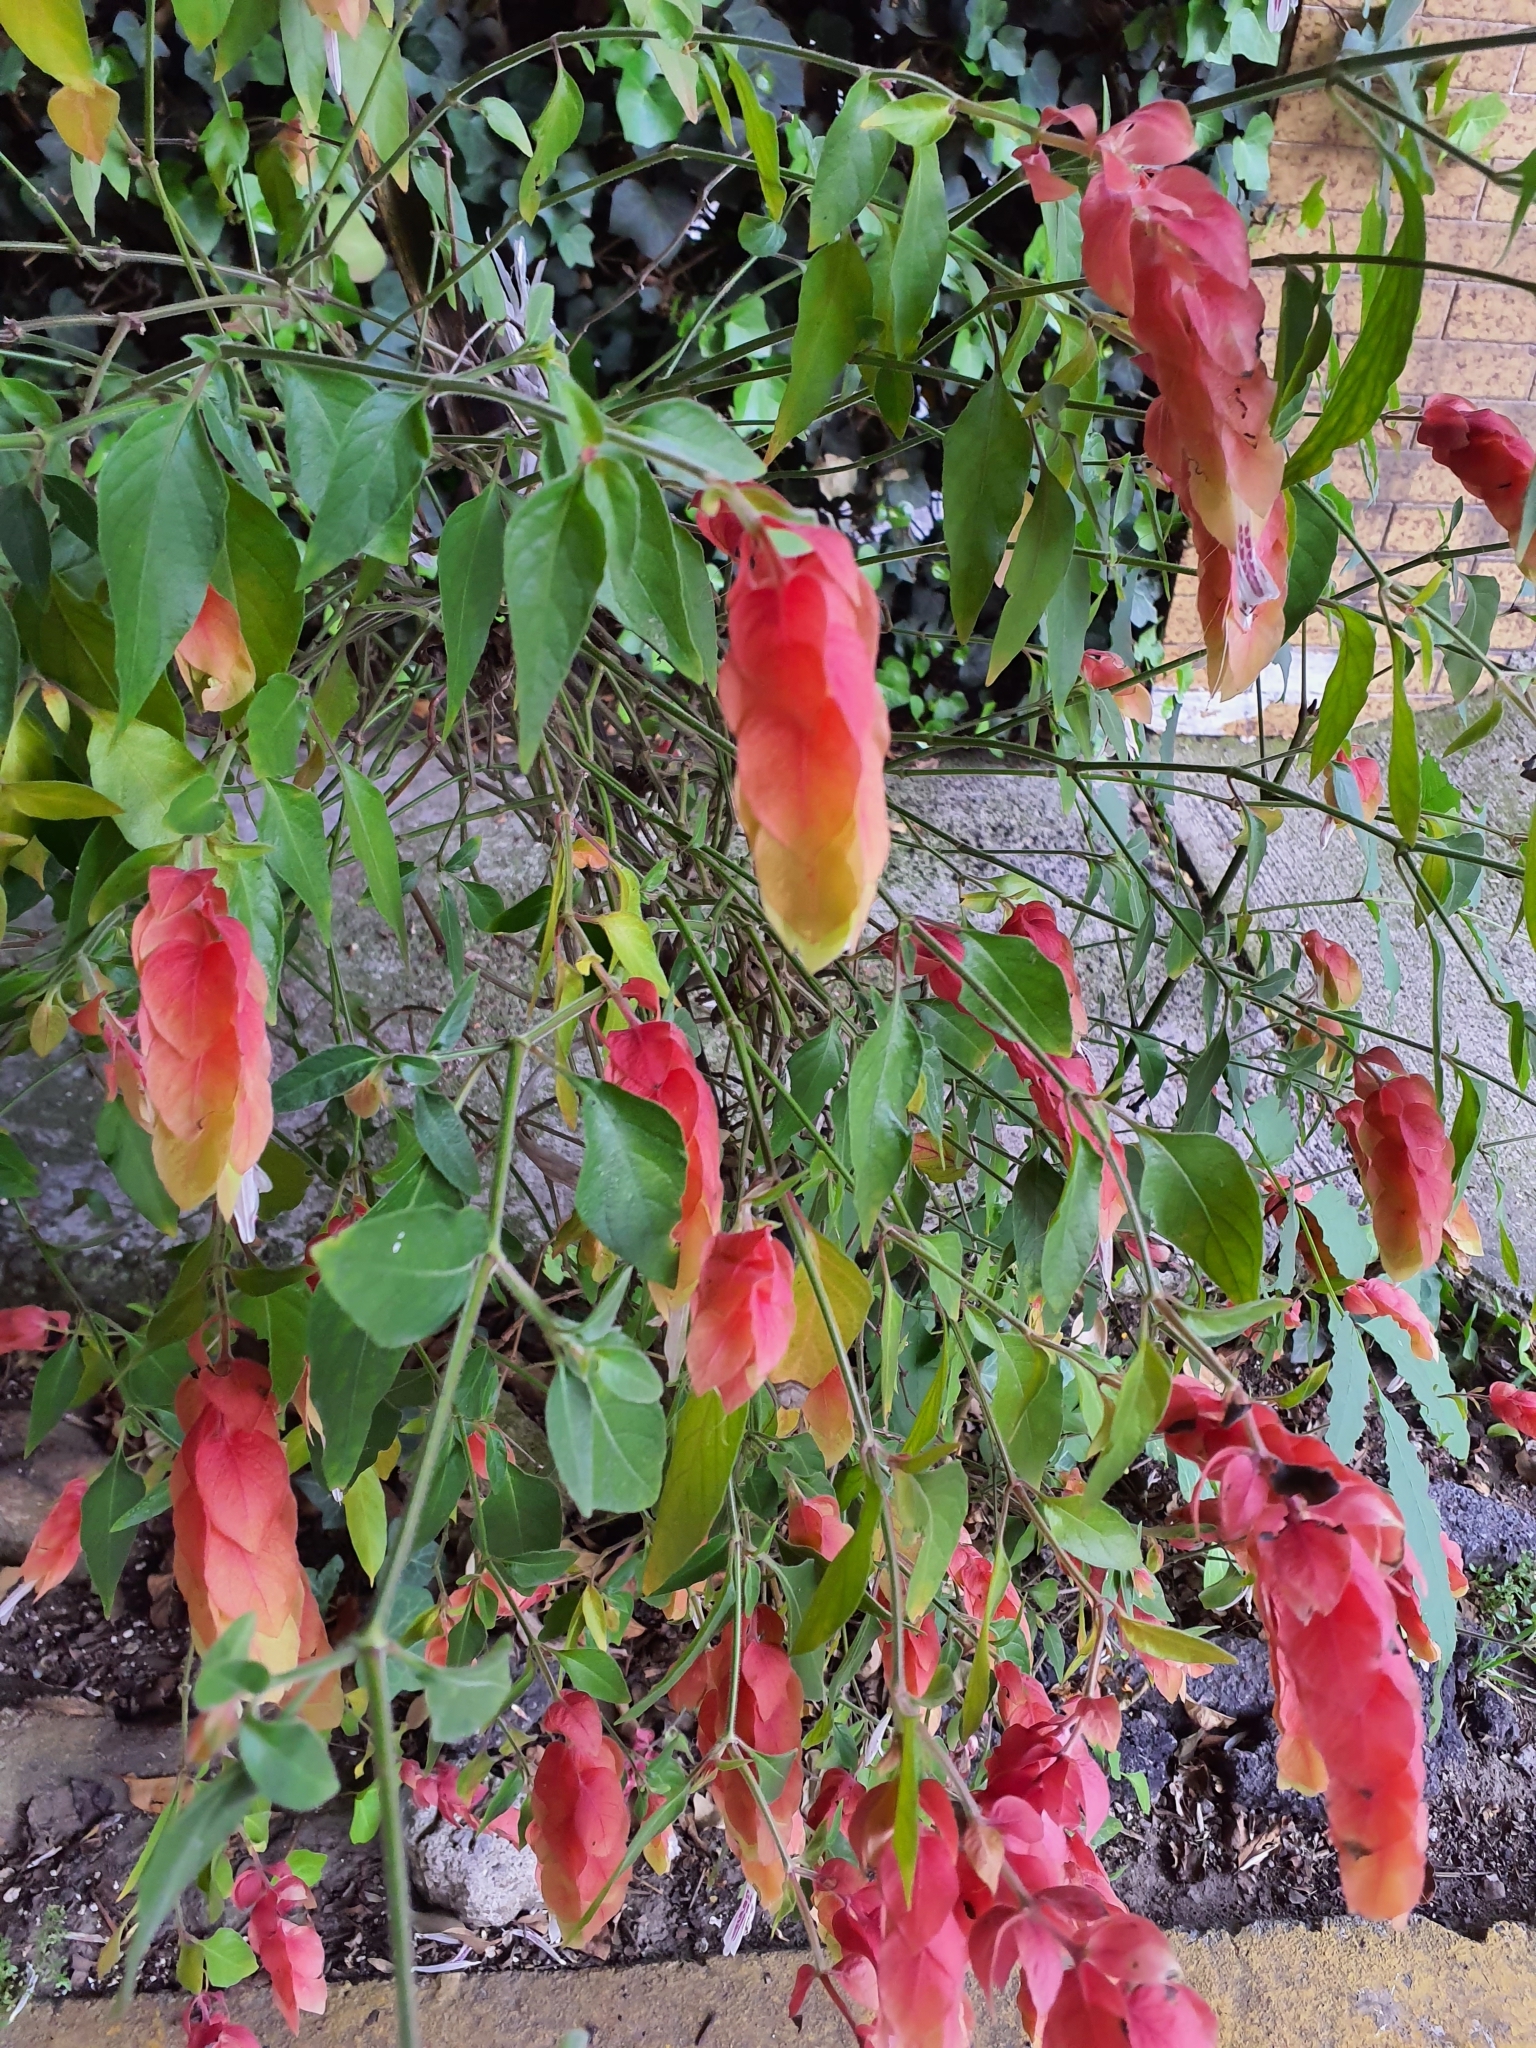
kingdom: Plantae
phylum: Tracheophyta
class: Magnoliopsida
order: Lamiales
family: Acanthaceae
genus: Justicia
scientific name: Justicia brandegeeana
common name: Shrimpplant
